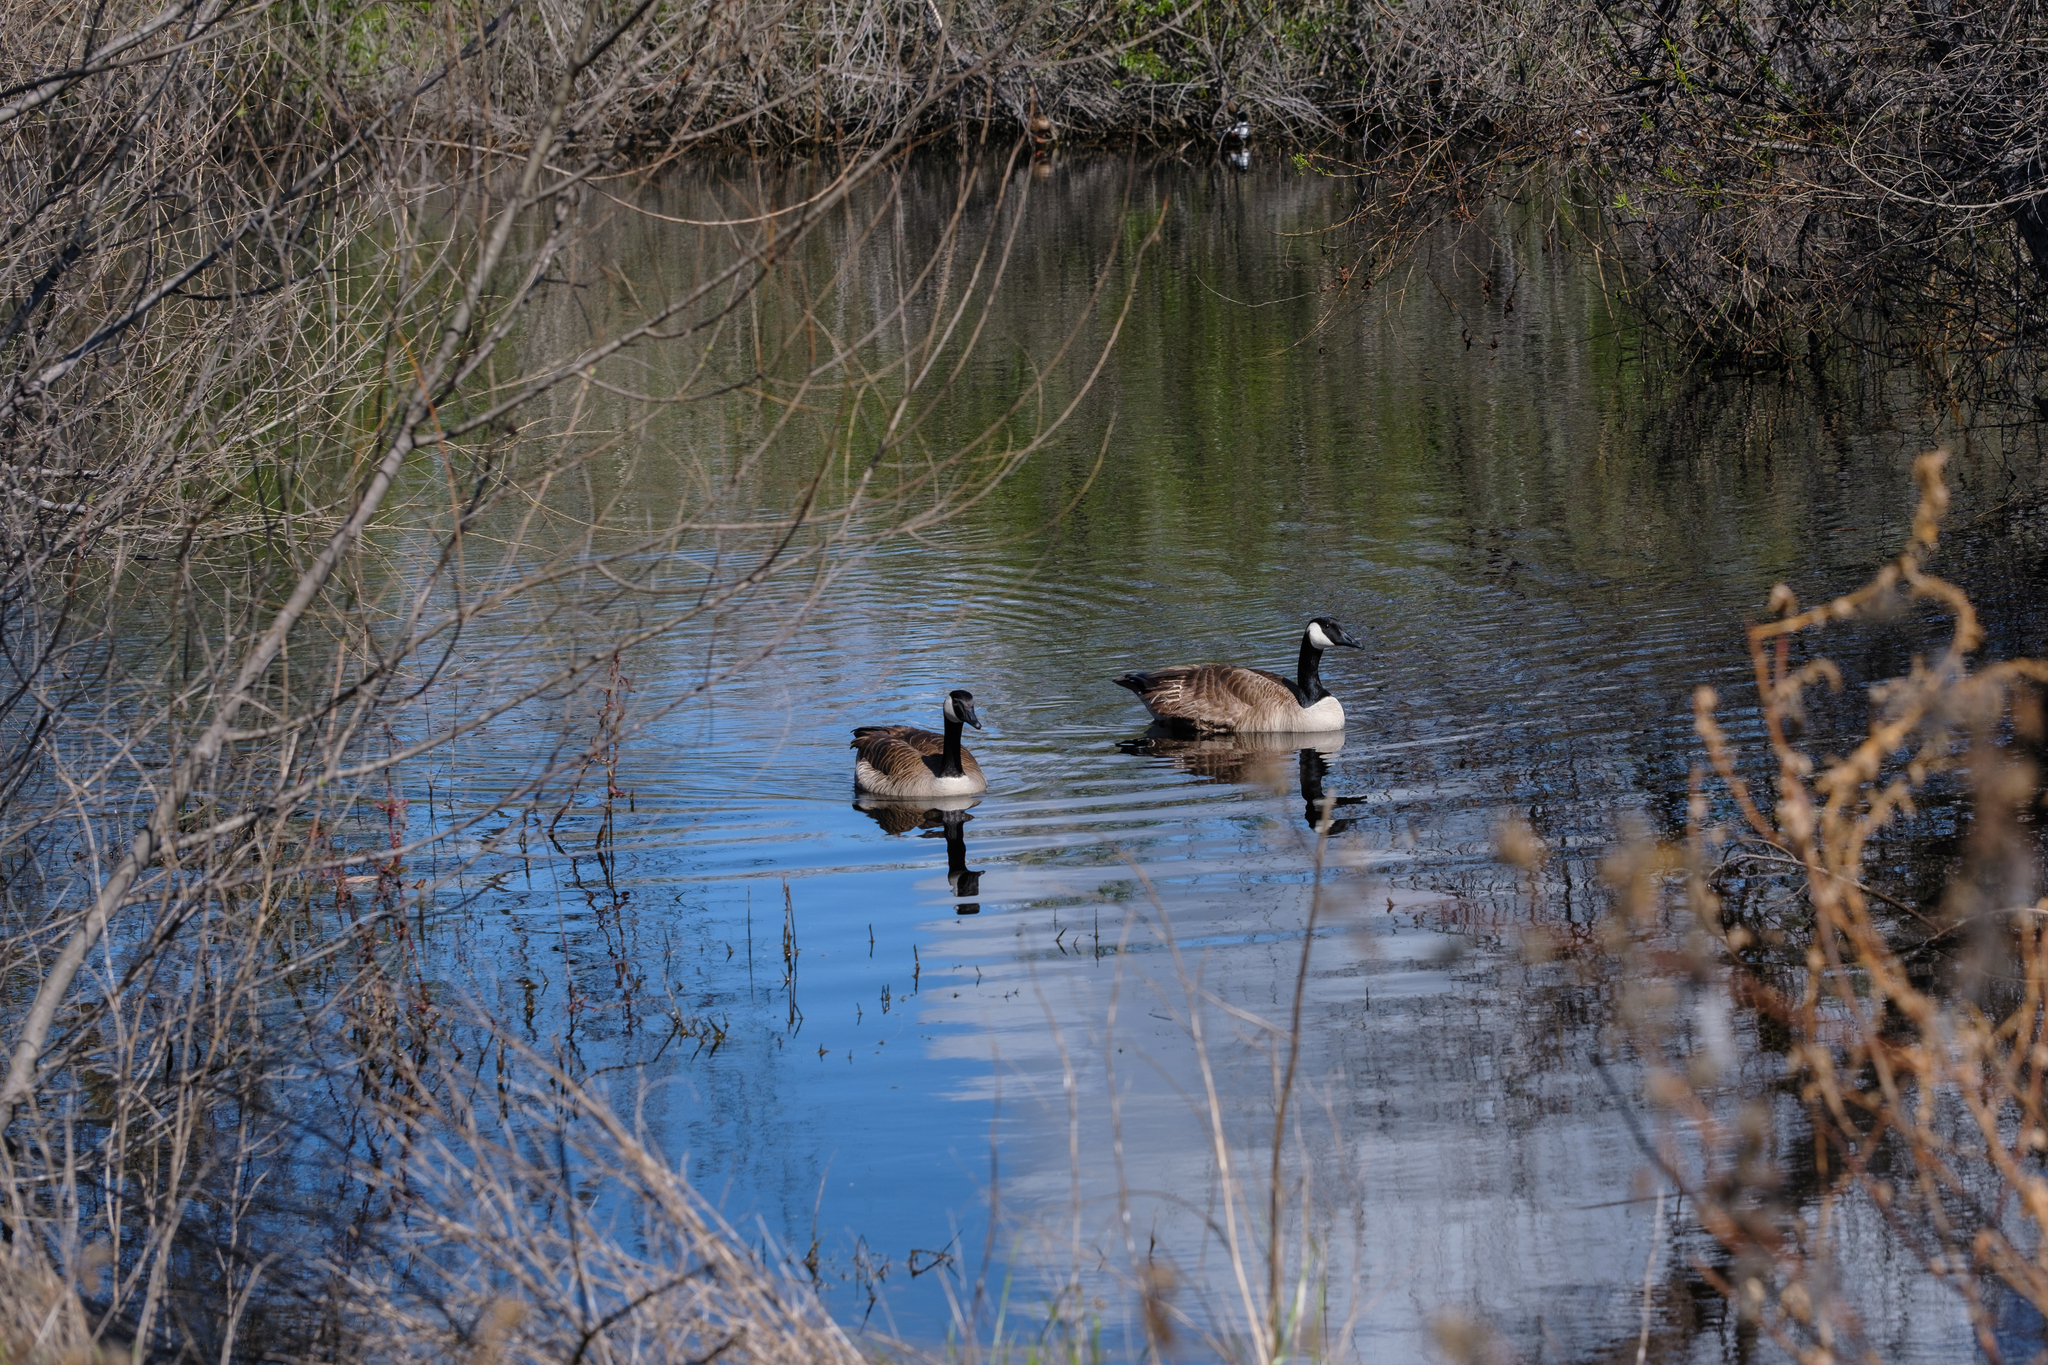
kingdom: Animalia
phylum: Chordata
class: Aves
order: Anseriformes
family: Anatidae
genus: Branta
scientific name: Branta canadensis
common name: Canada goose
